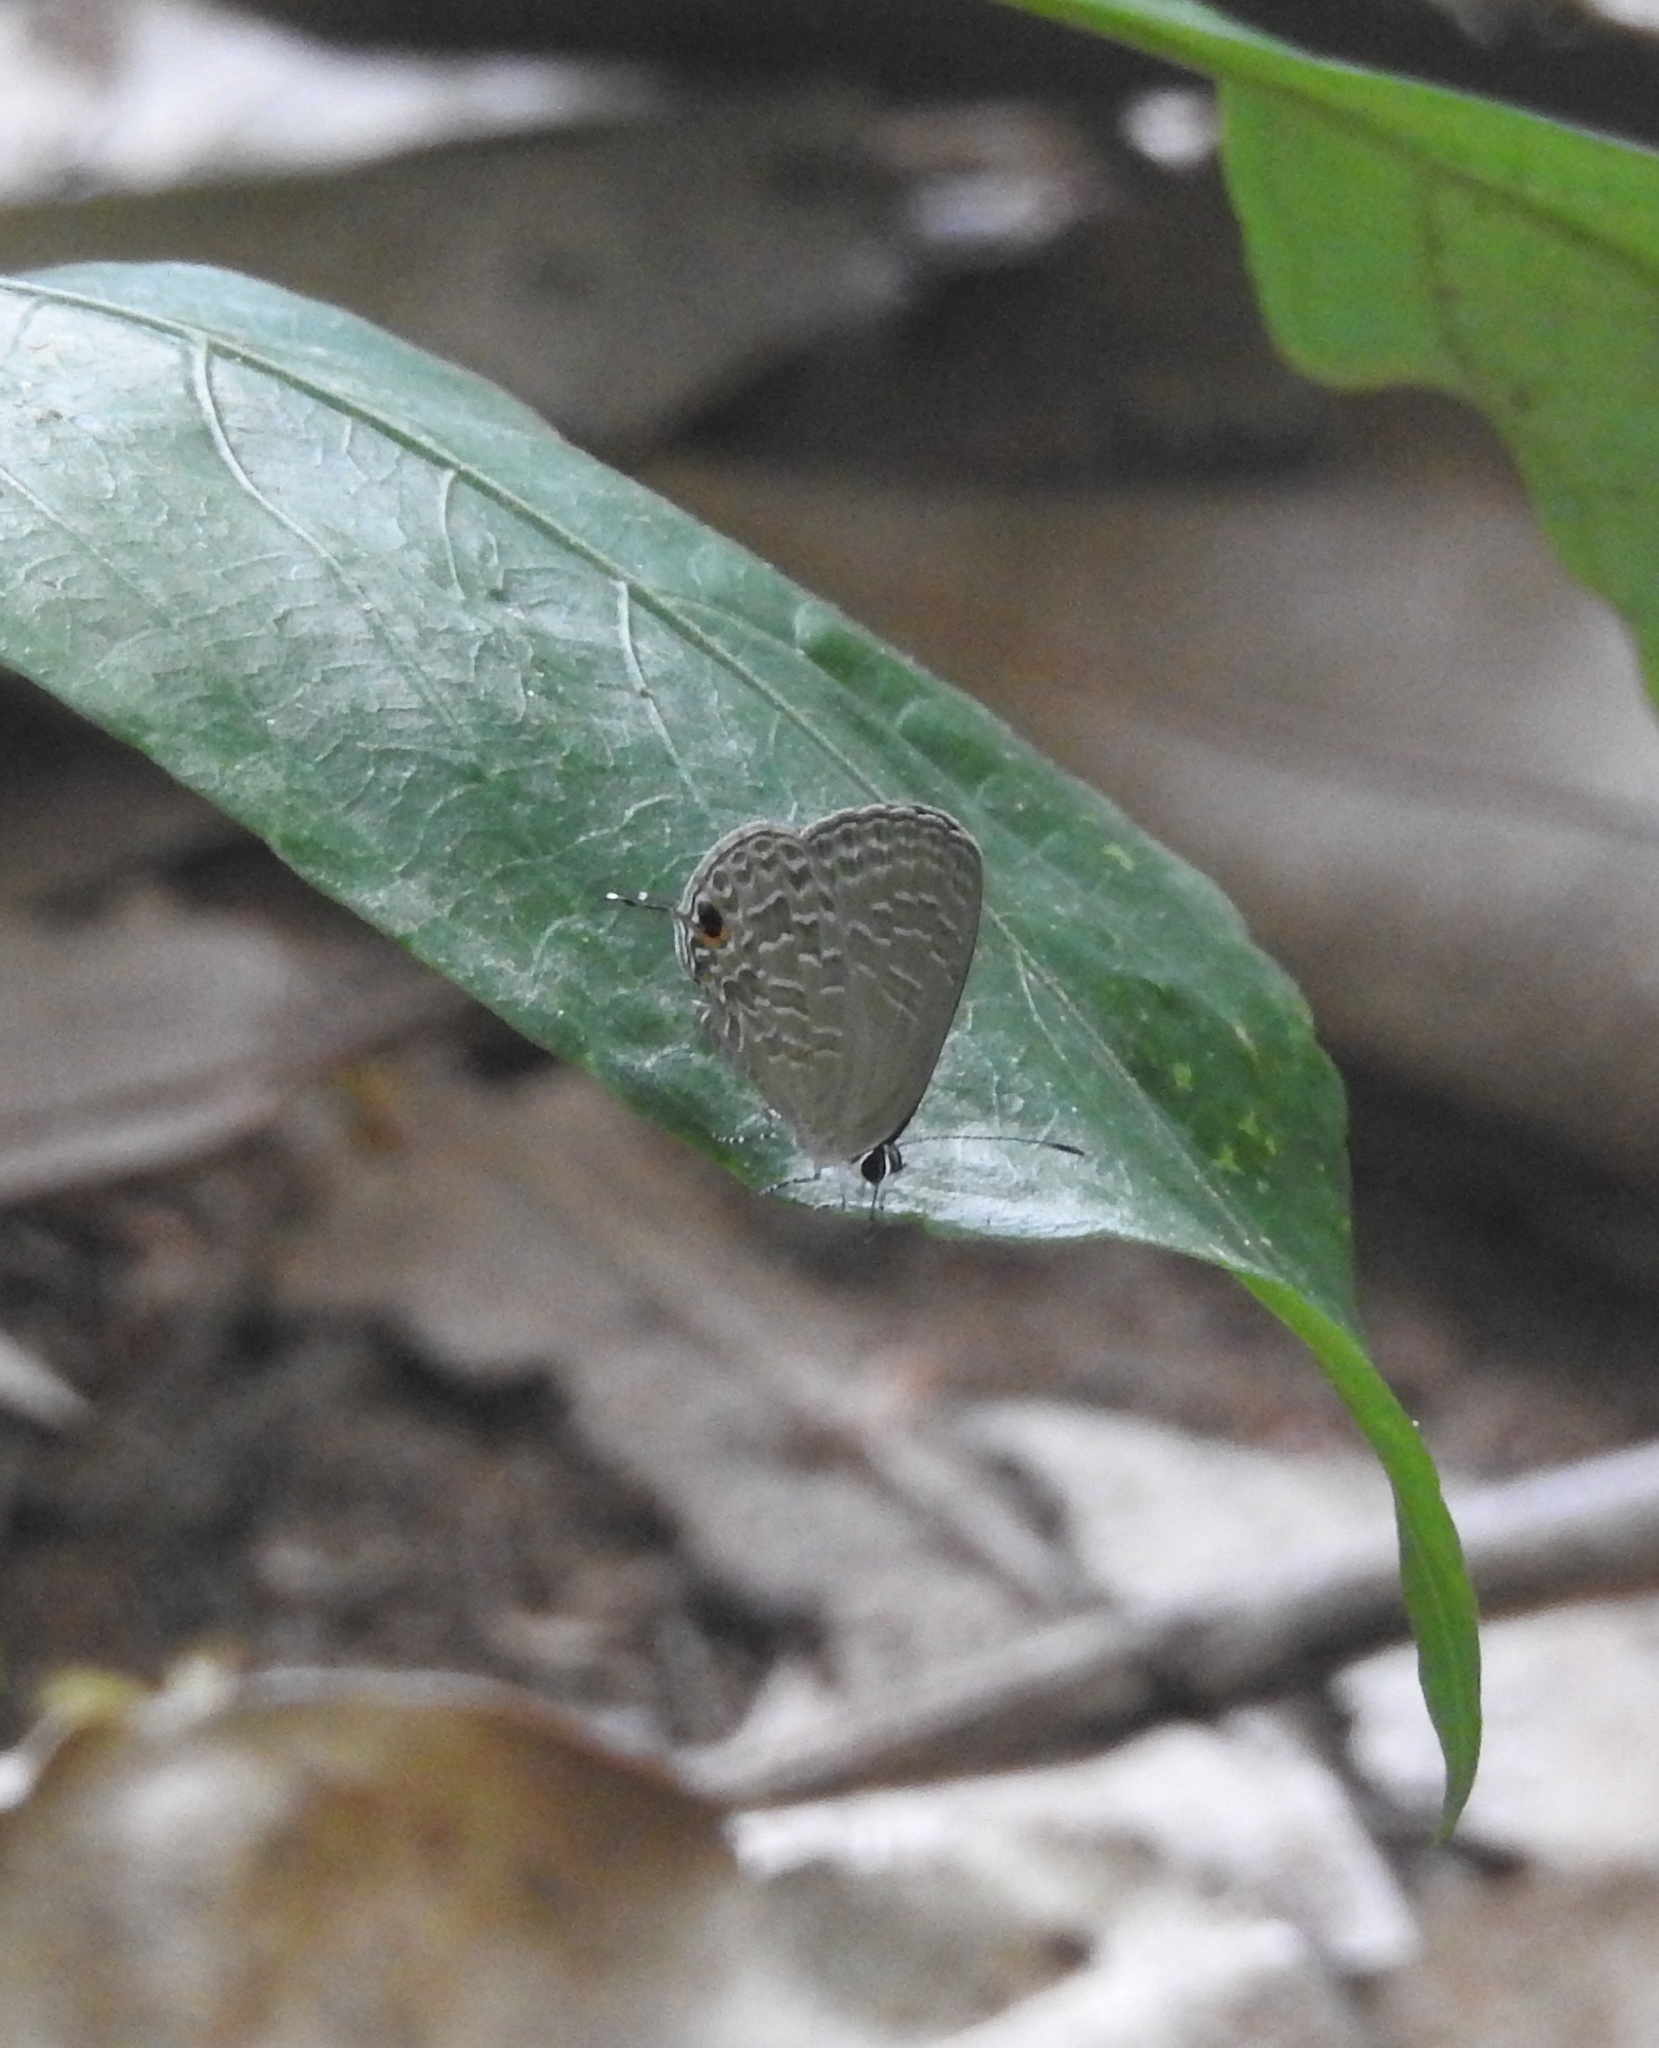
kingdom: Animalia
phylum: Arthropoda
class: Insecta
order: Lepidoptera
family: Lycaenidae
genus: Jamides
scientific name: Jamides bochus
